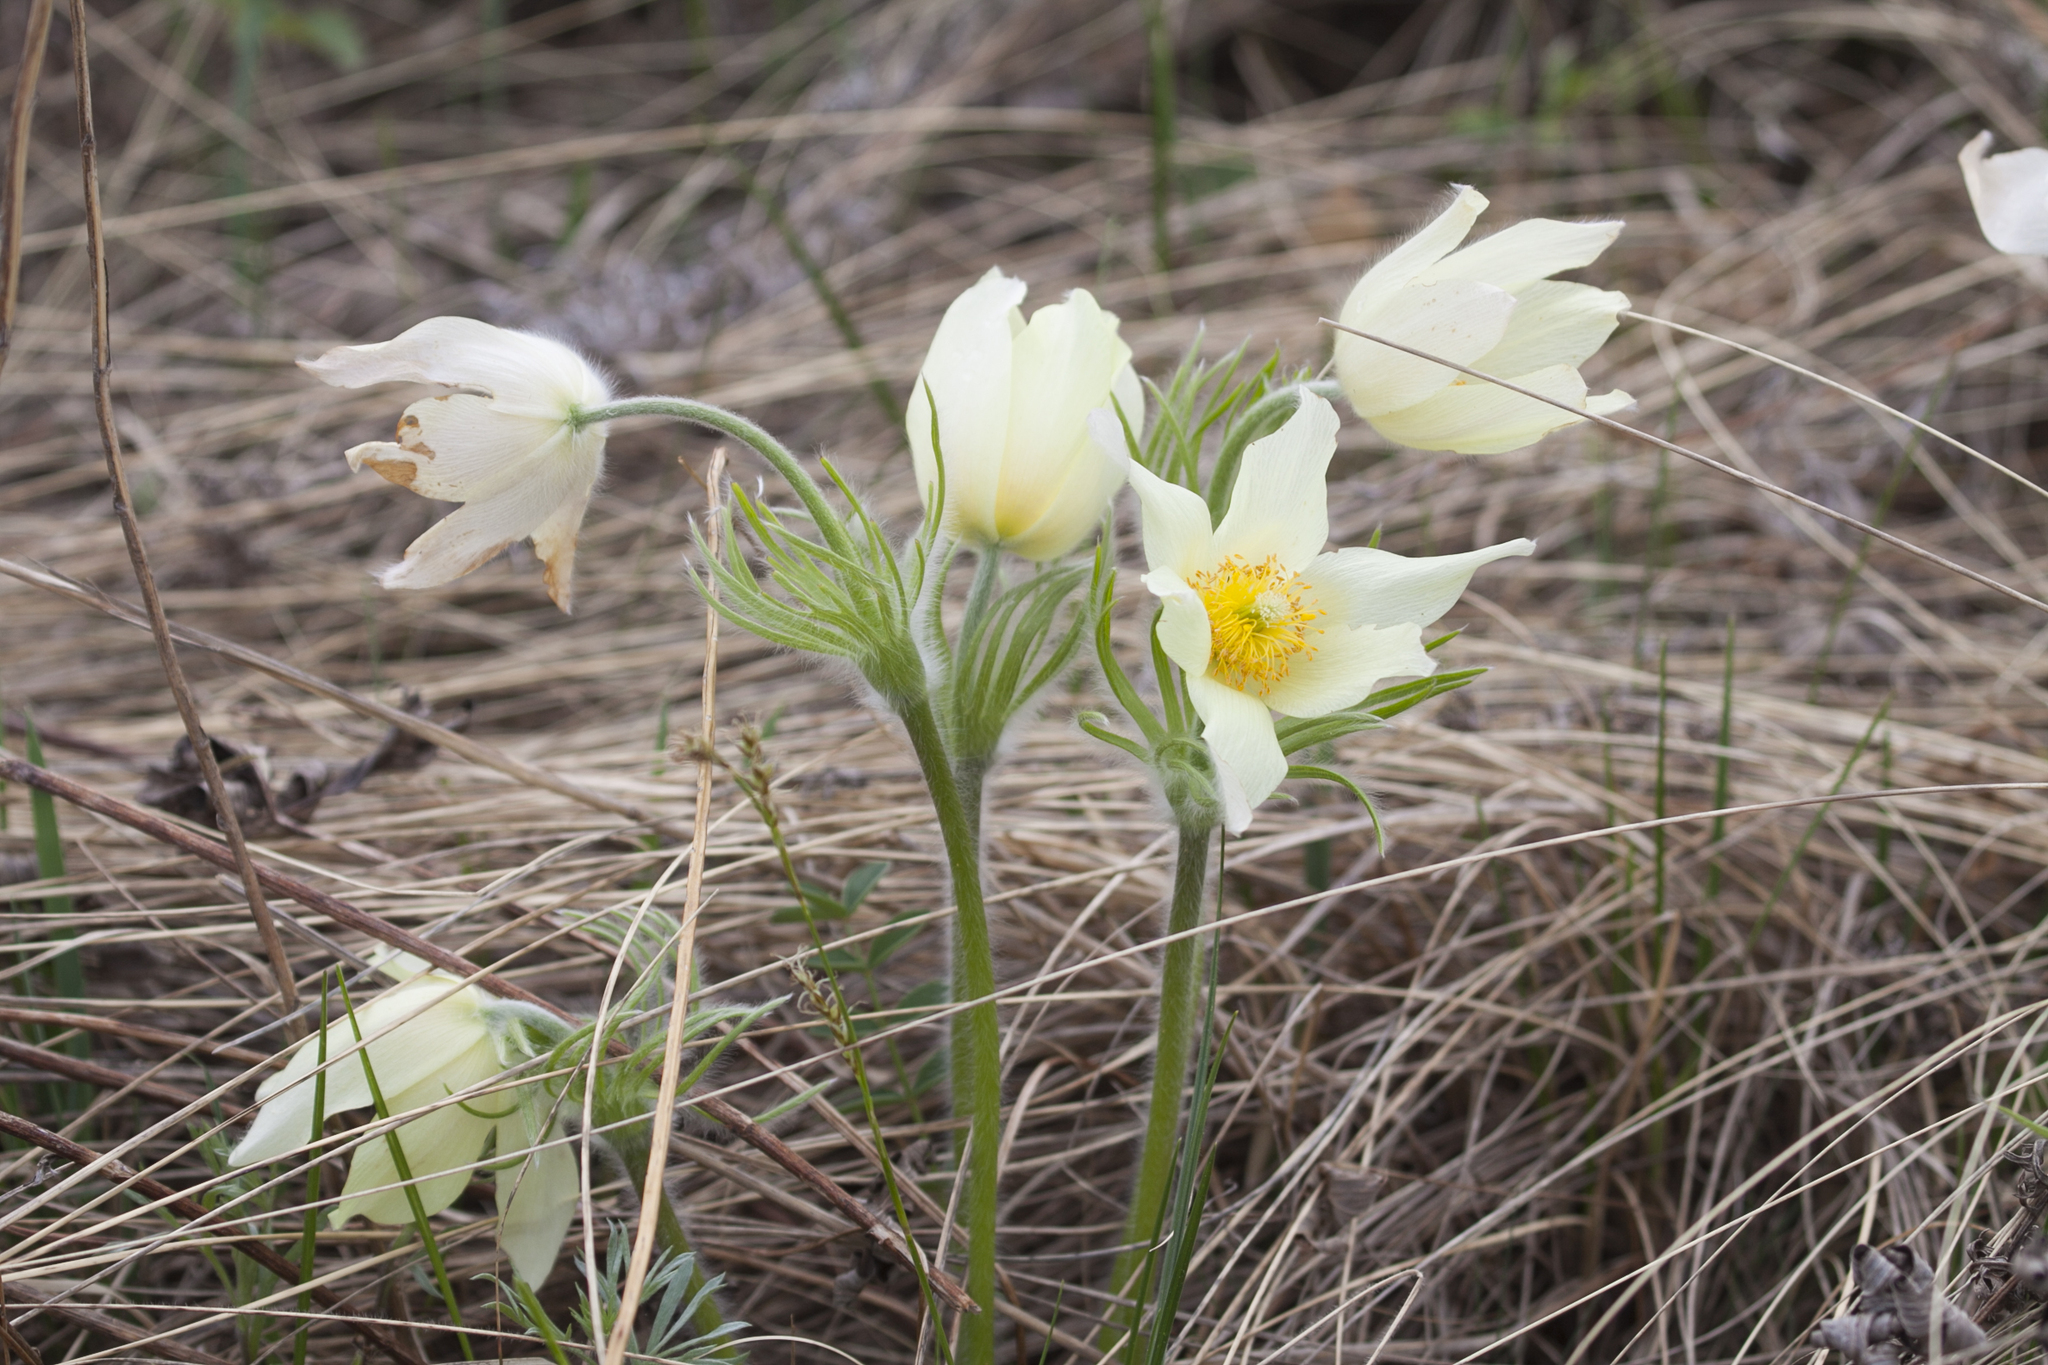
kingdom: Plantae
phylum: Tracheophyta
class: Magnoliopsida
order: Ranunculales
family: Ranunculaceae
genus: Pulsatilla
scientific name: Pulsatilla patens
